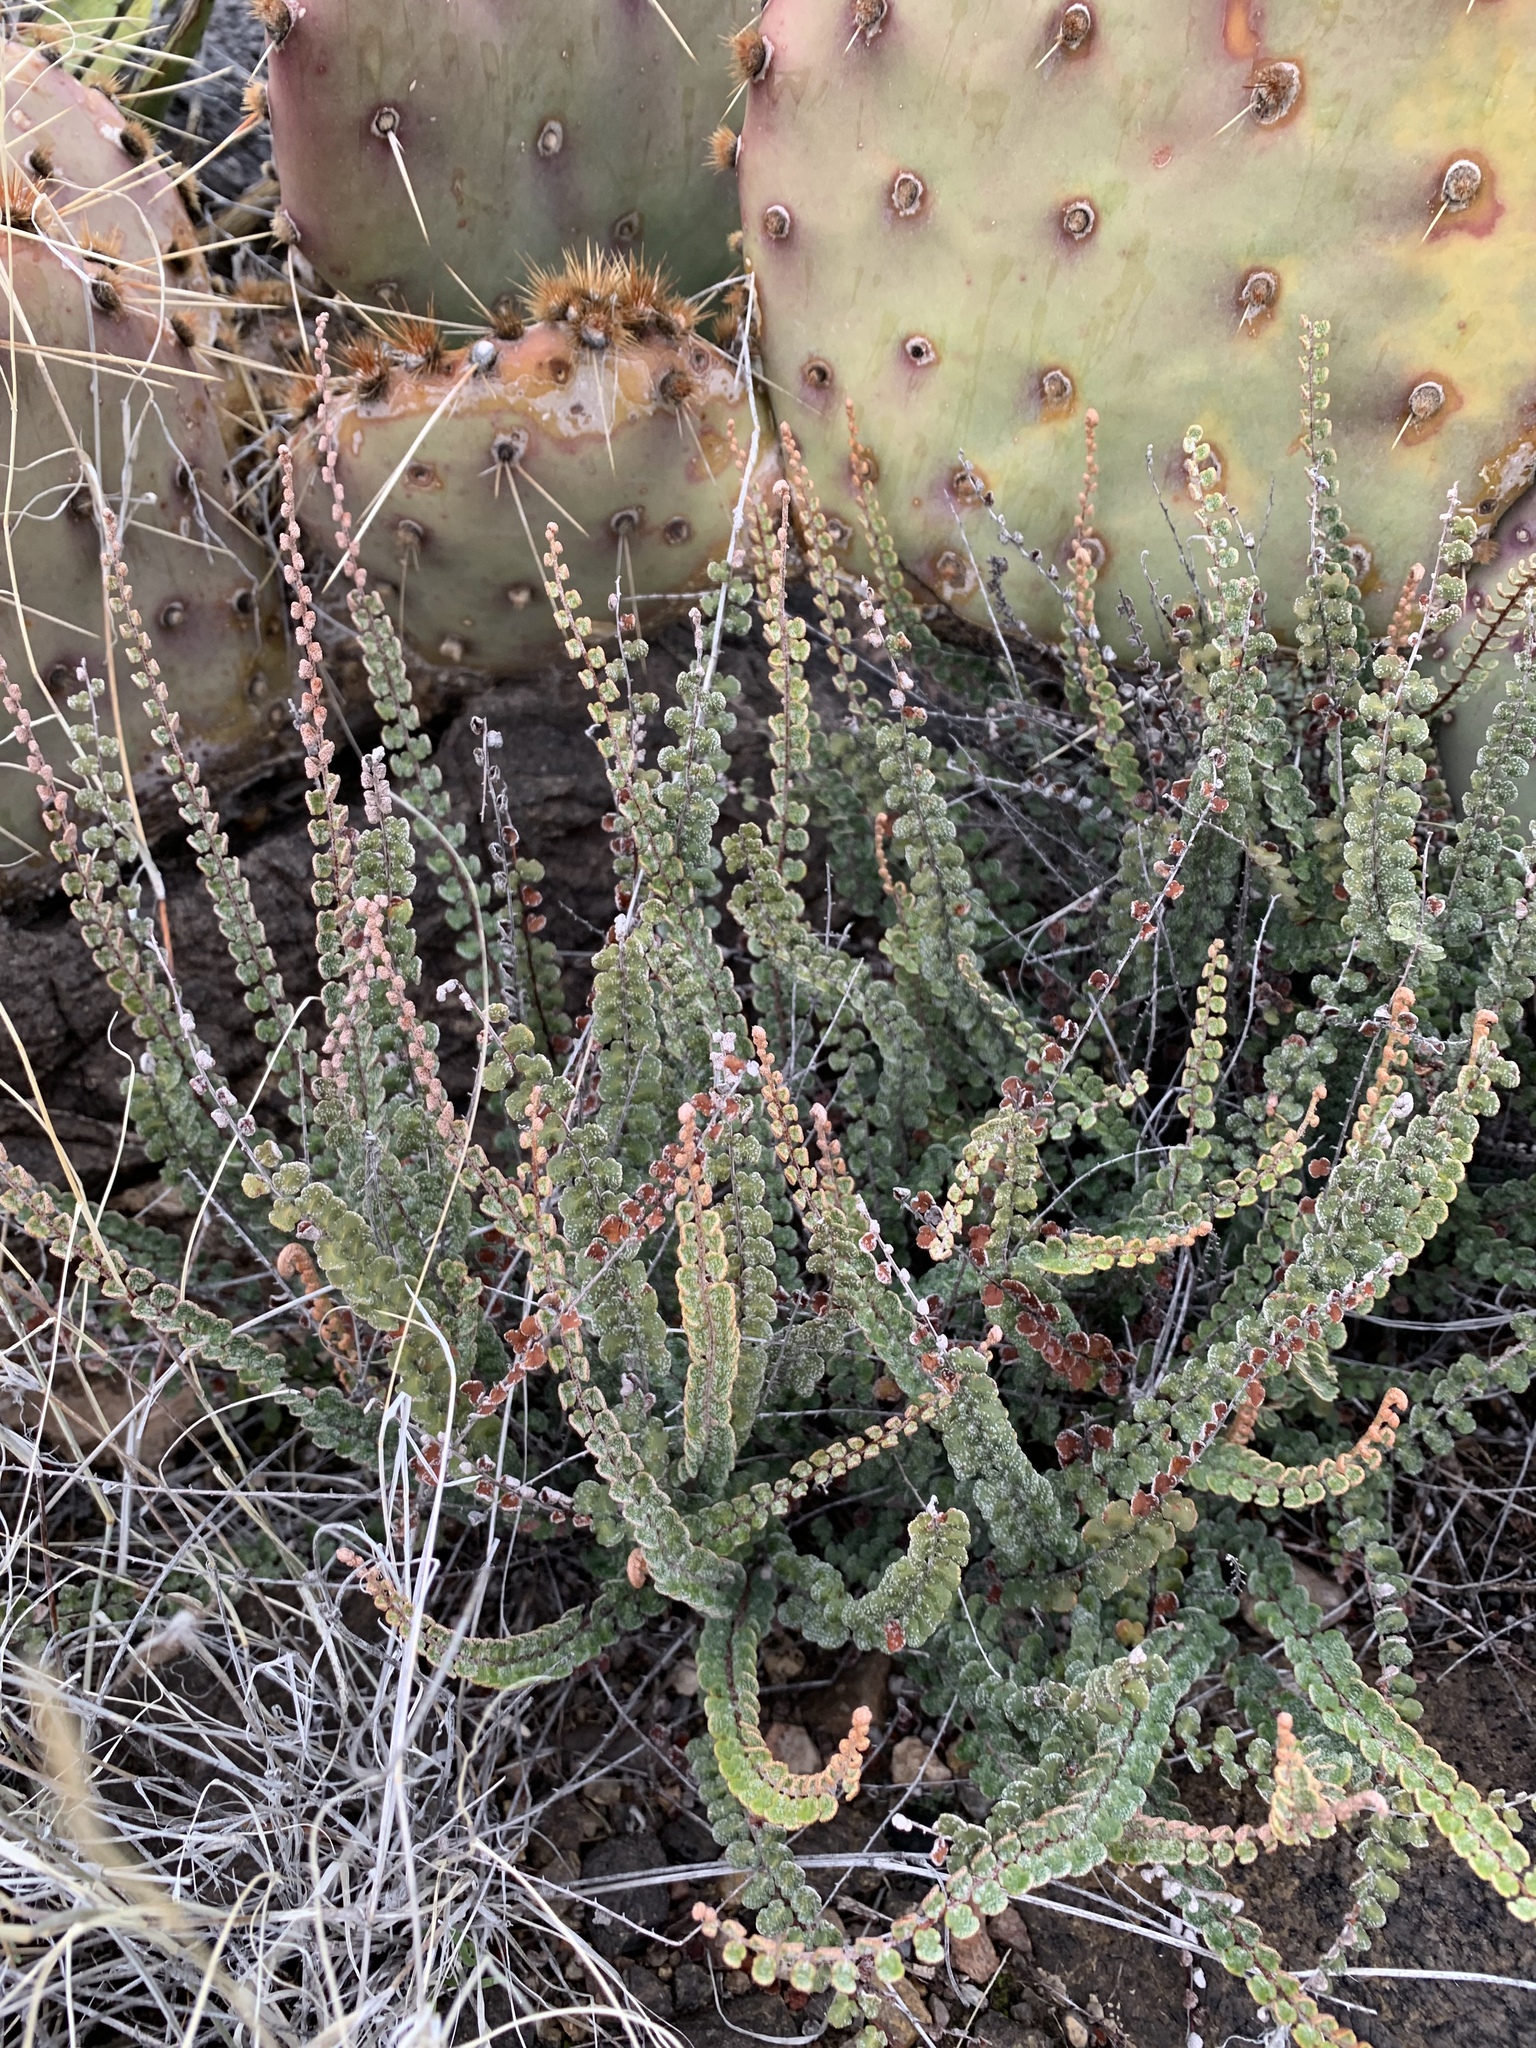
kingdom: Plantae
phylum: Tracheophyta
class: Polypodiopsida
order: Polypodiales
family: Pteridaceae
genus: Astrolepis
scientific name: Astrolepis cochisensis
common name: Scaly cloak fern
